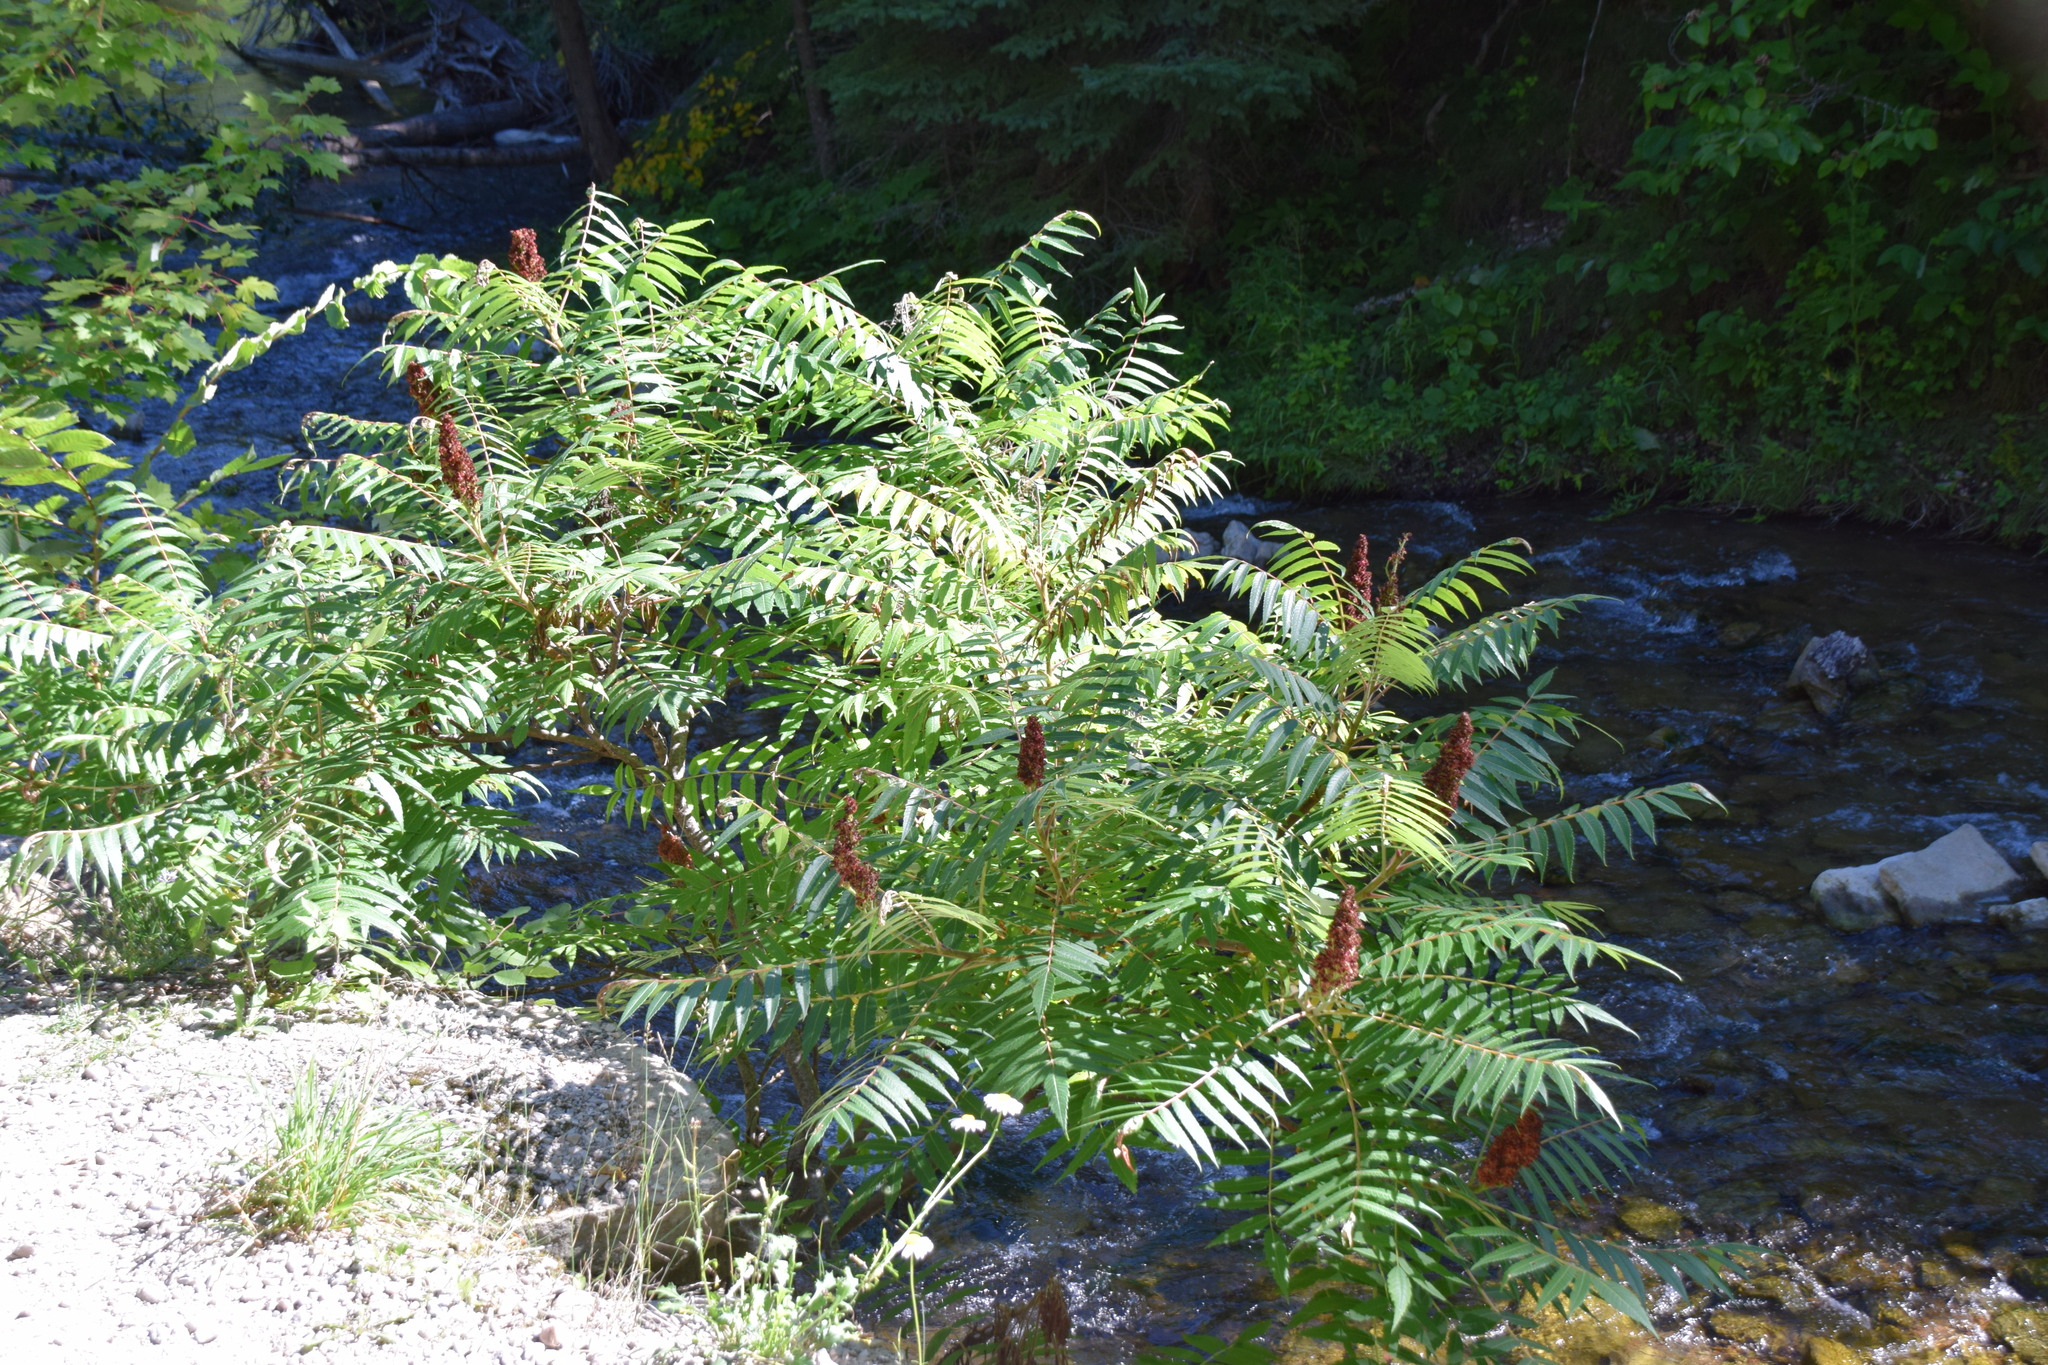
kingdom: Plantae
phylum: Tracheophyta
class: Magnoliopsida
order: Sapindales
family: Anacardiaceae
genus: Rhus
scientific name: Rhus typhina
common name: Staghorn sumac
